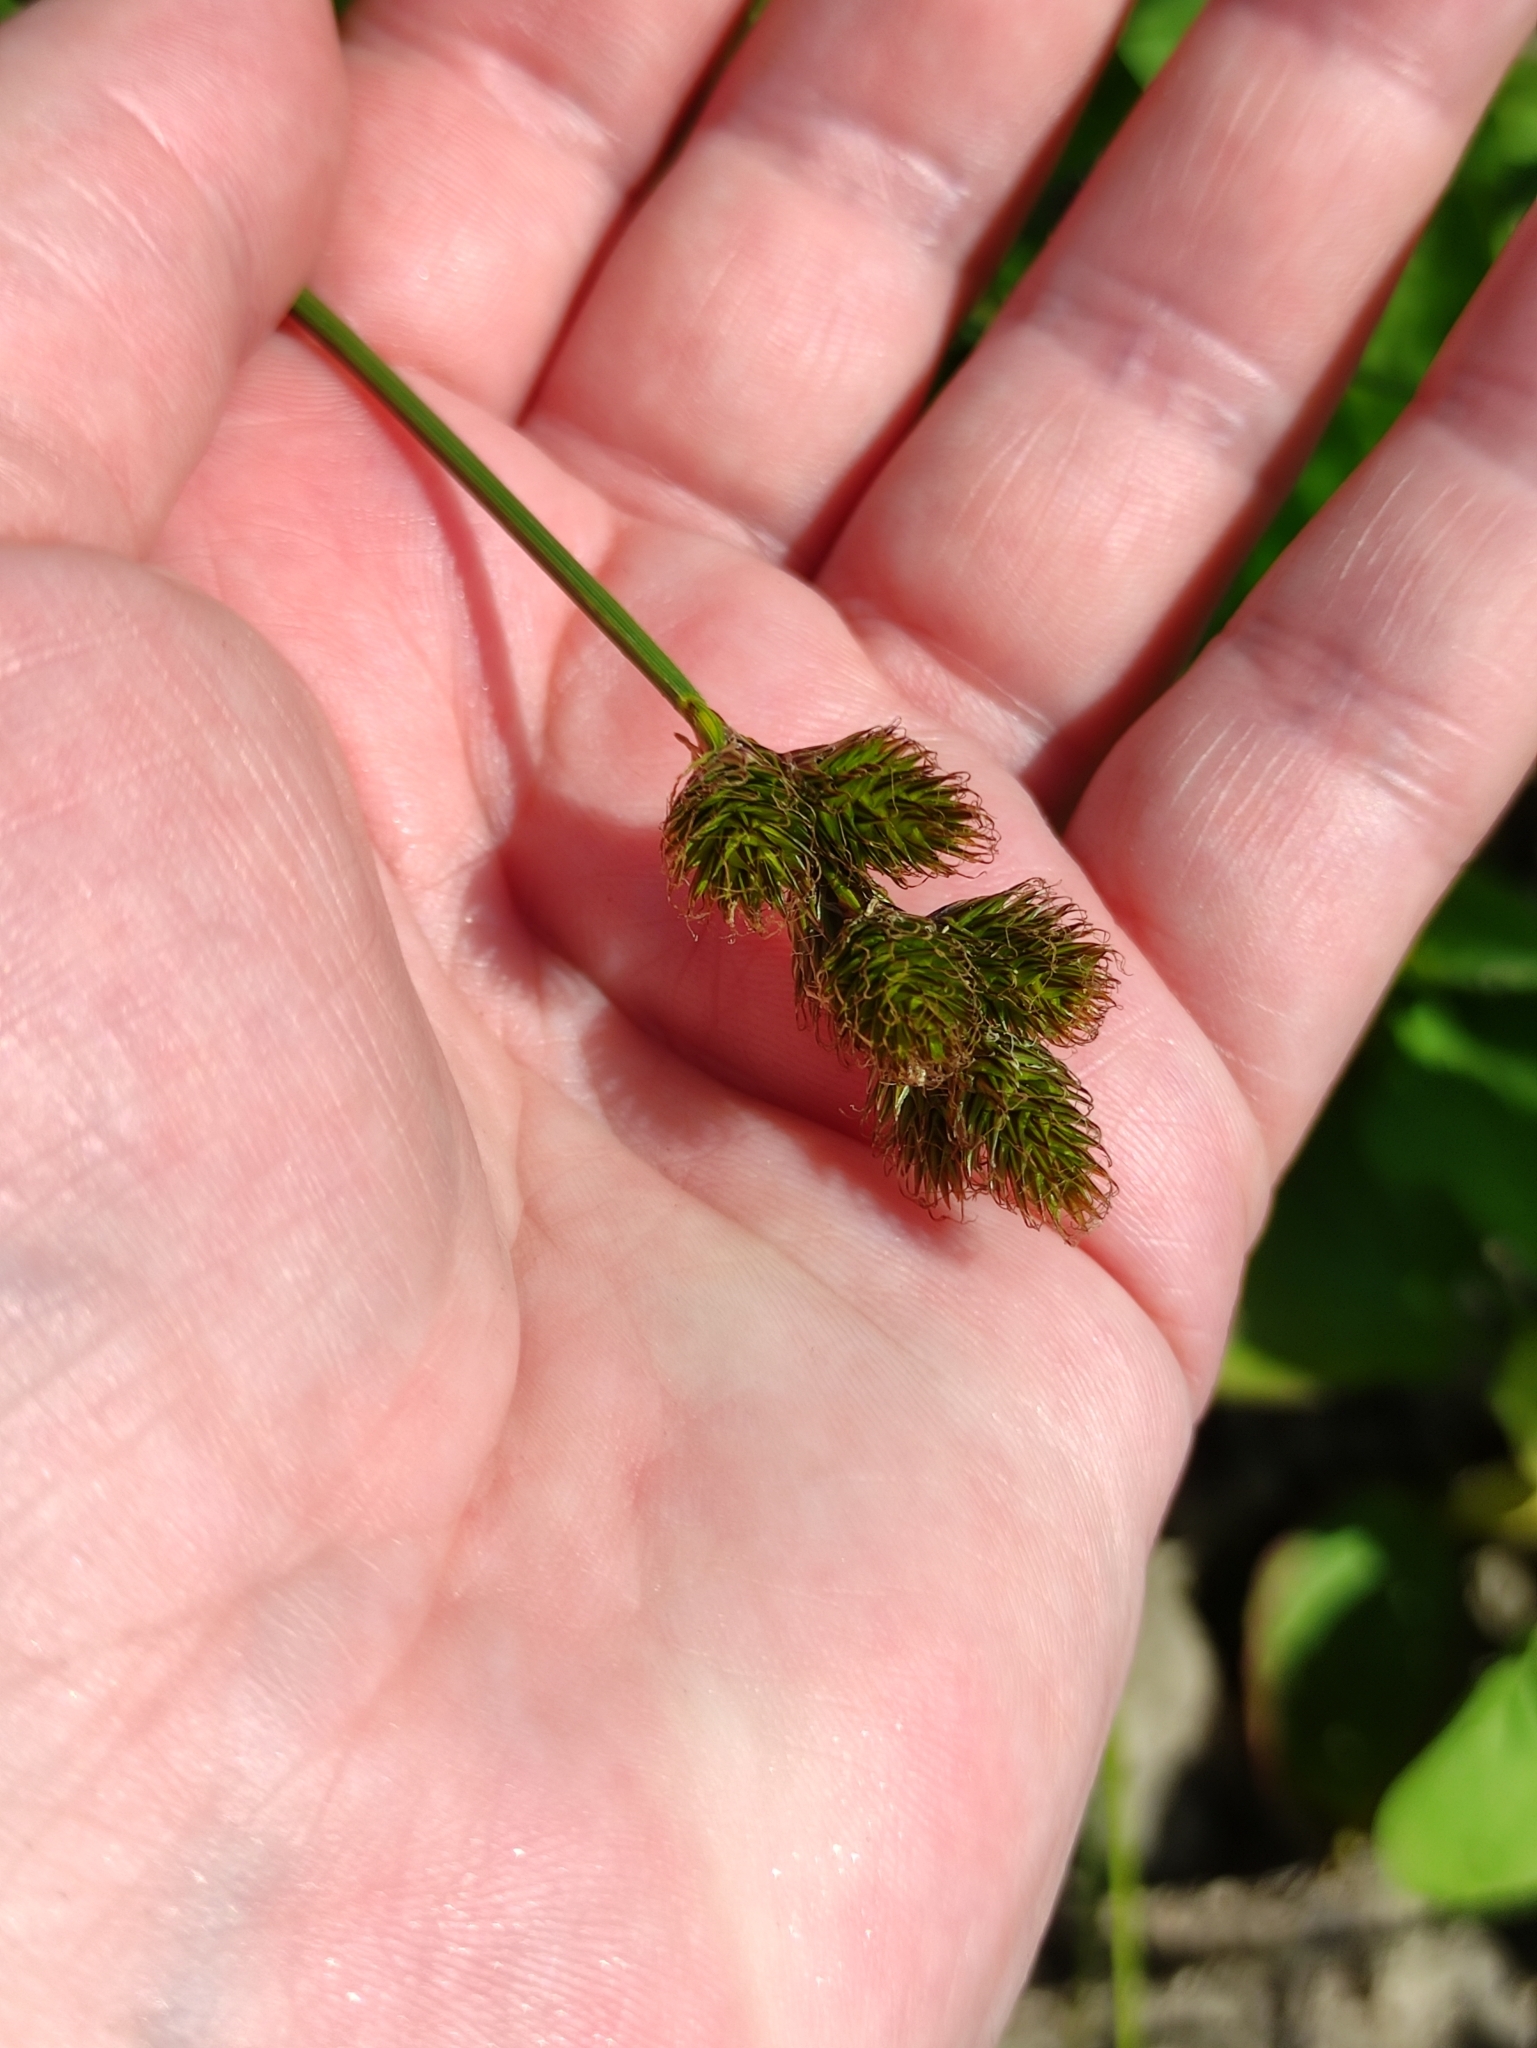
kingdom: Plantae
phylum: Tracheophyta
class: Liliopsida
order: Poales
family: Cyperaceae
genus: Carex
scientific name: Carex leporina
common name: Oval sedge
